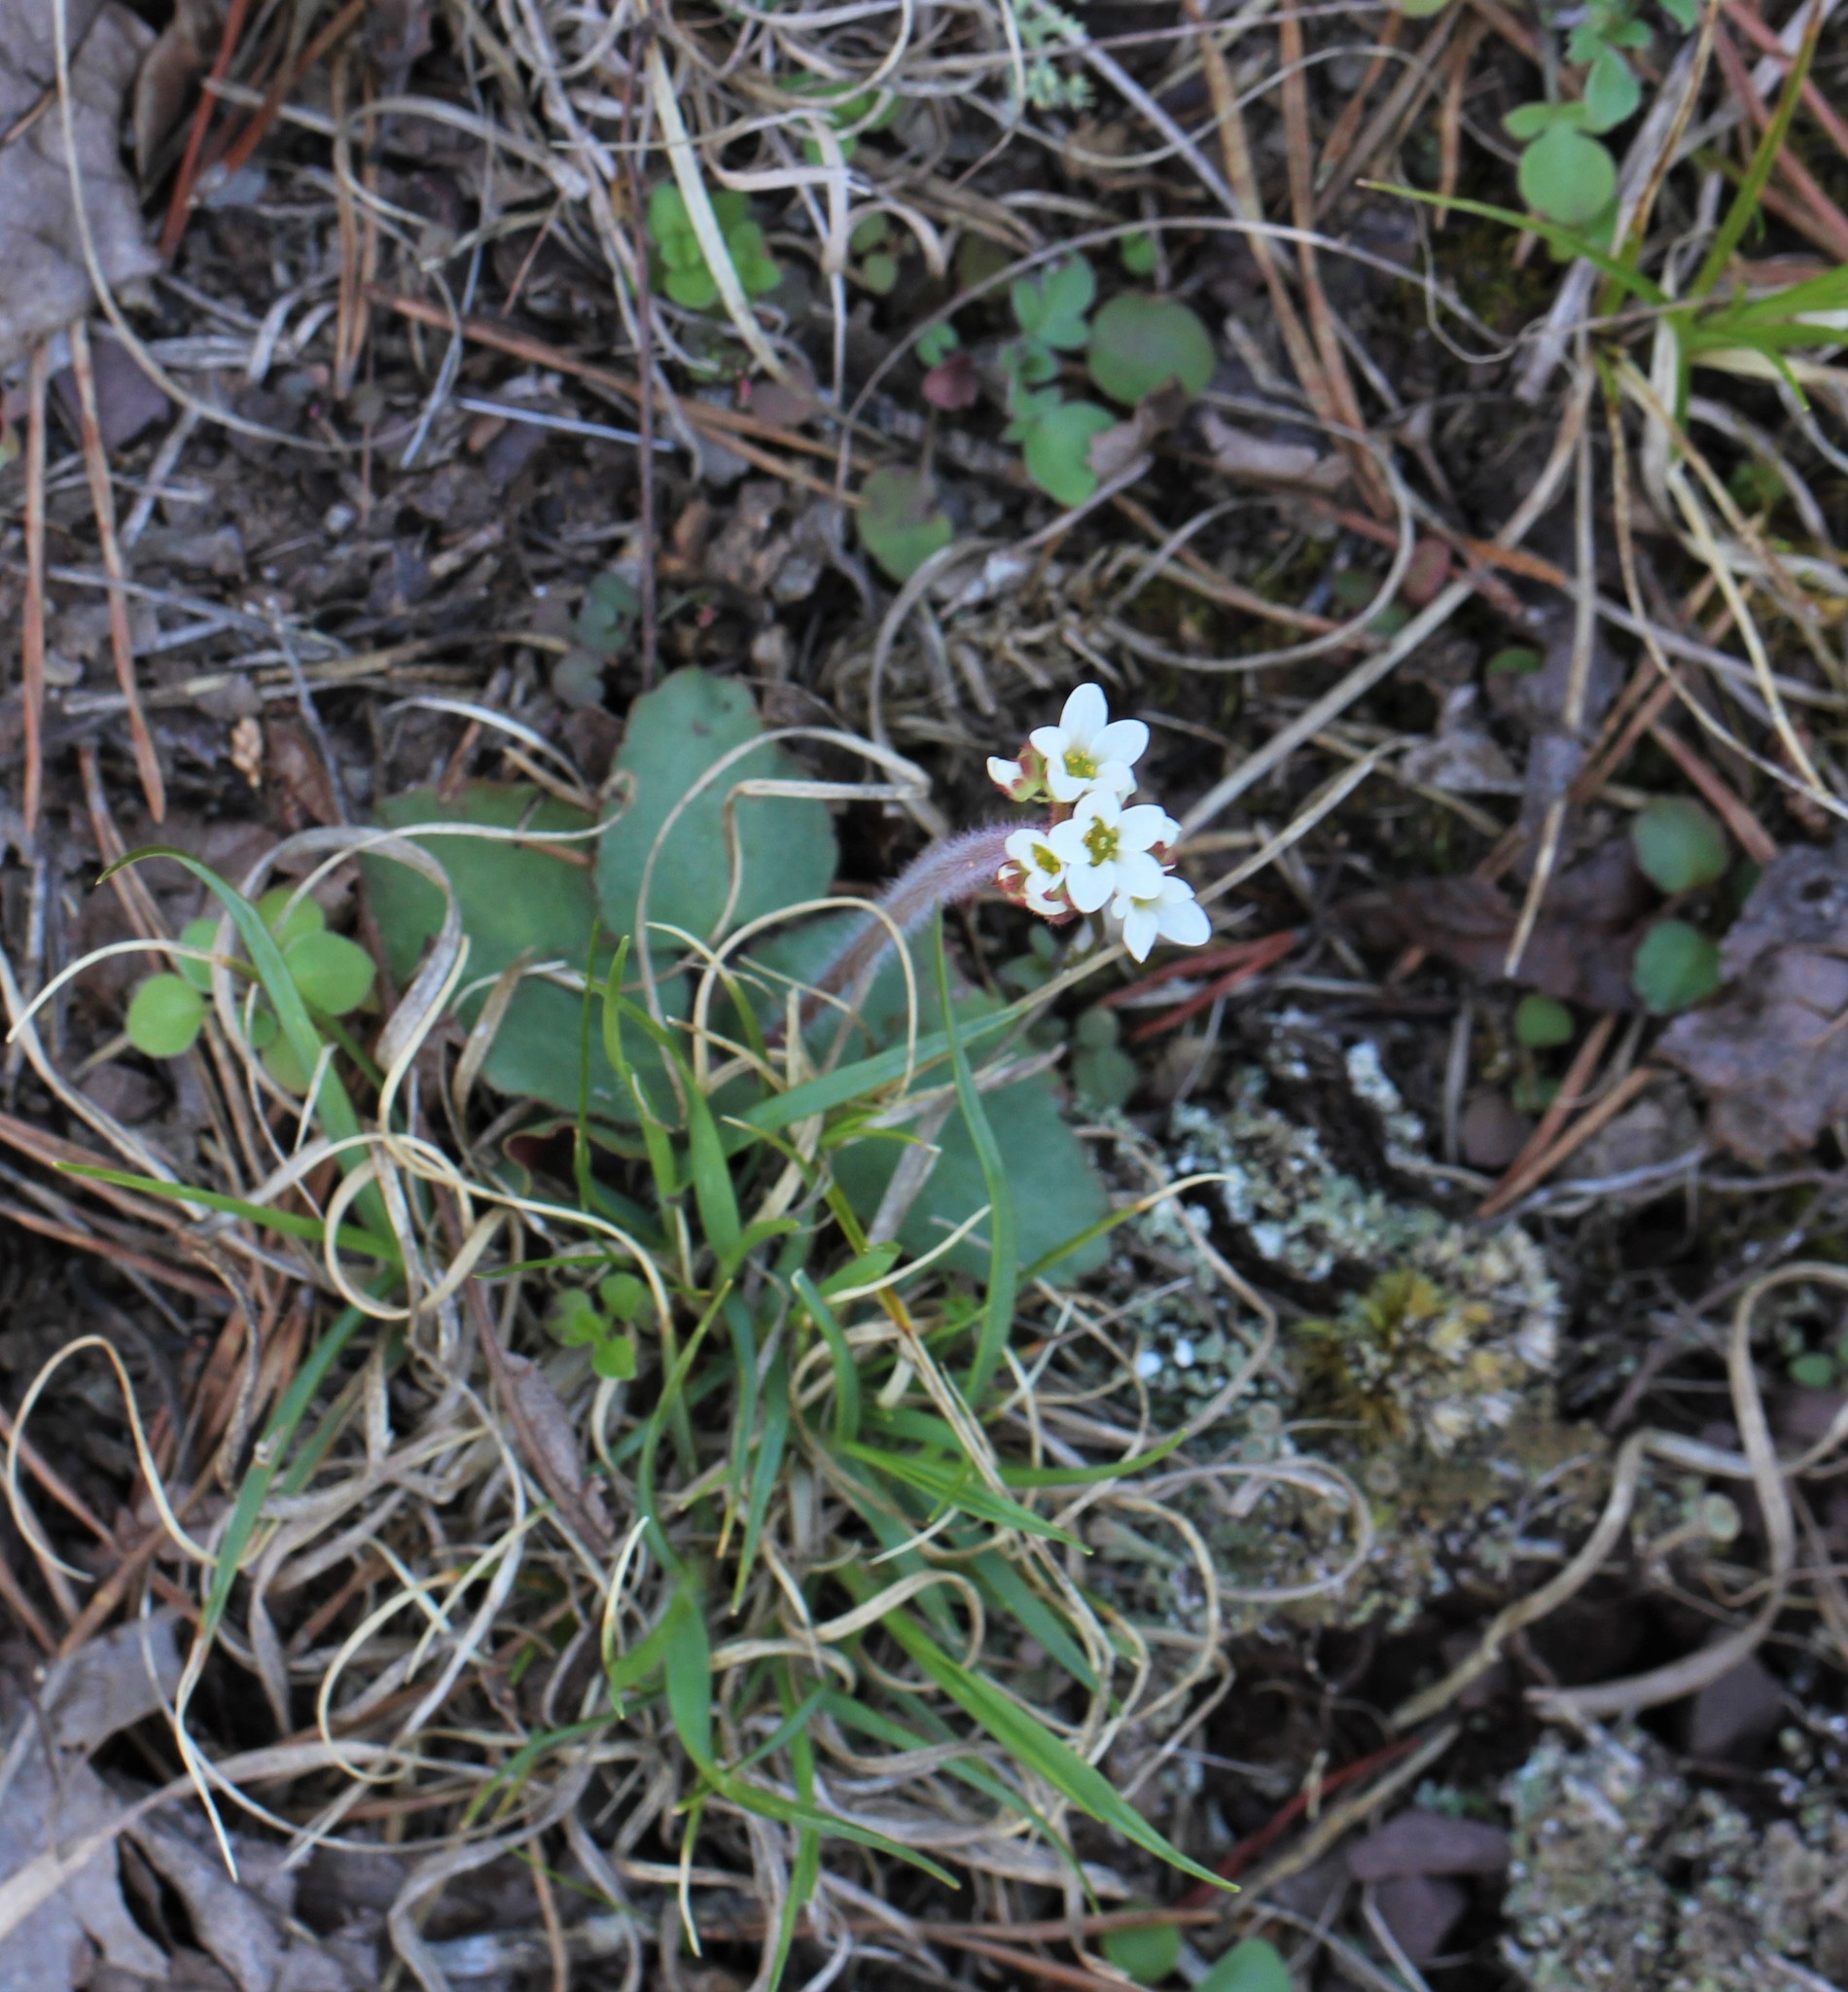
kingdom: Plantae
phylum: Tracheophyta
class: Magnoliopsida
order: Saxifragales
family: Saxifragaceae
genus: Micranthes
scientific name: Micranthes virginiensis
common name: Early saxifrage
